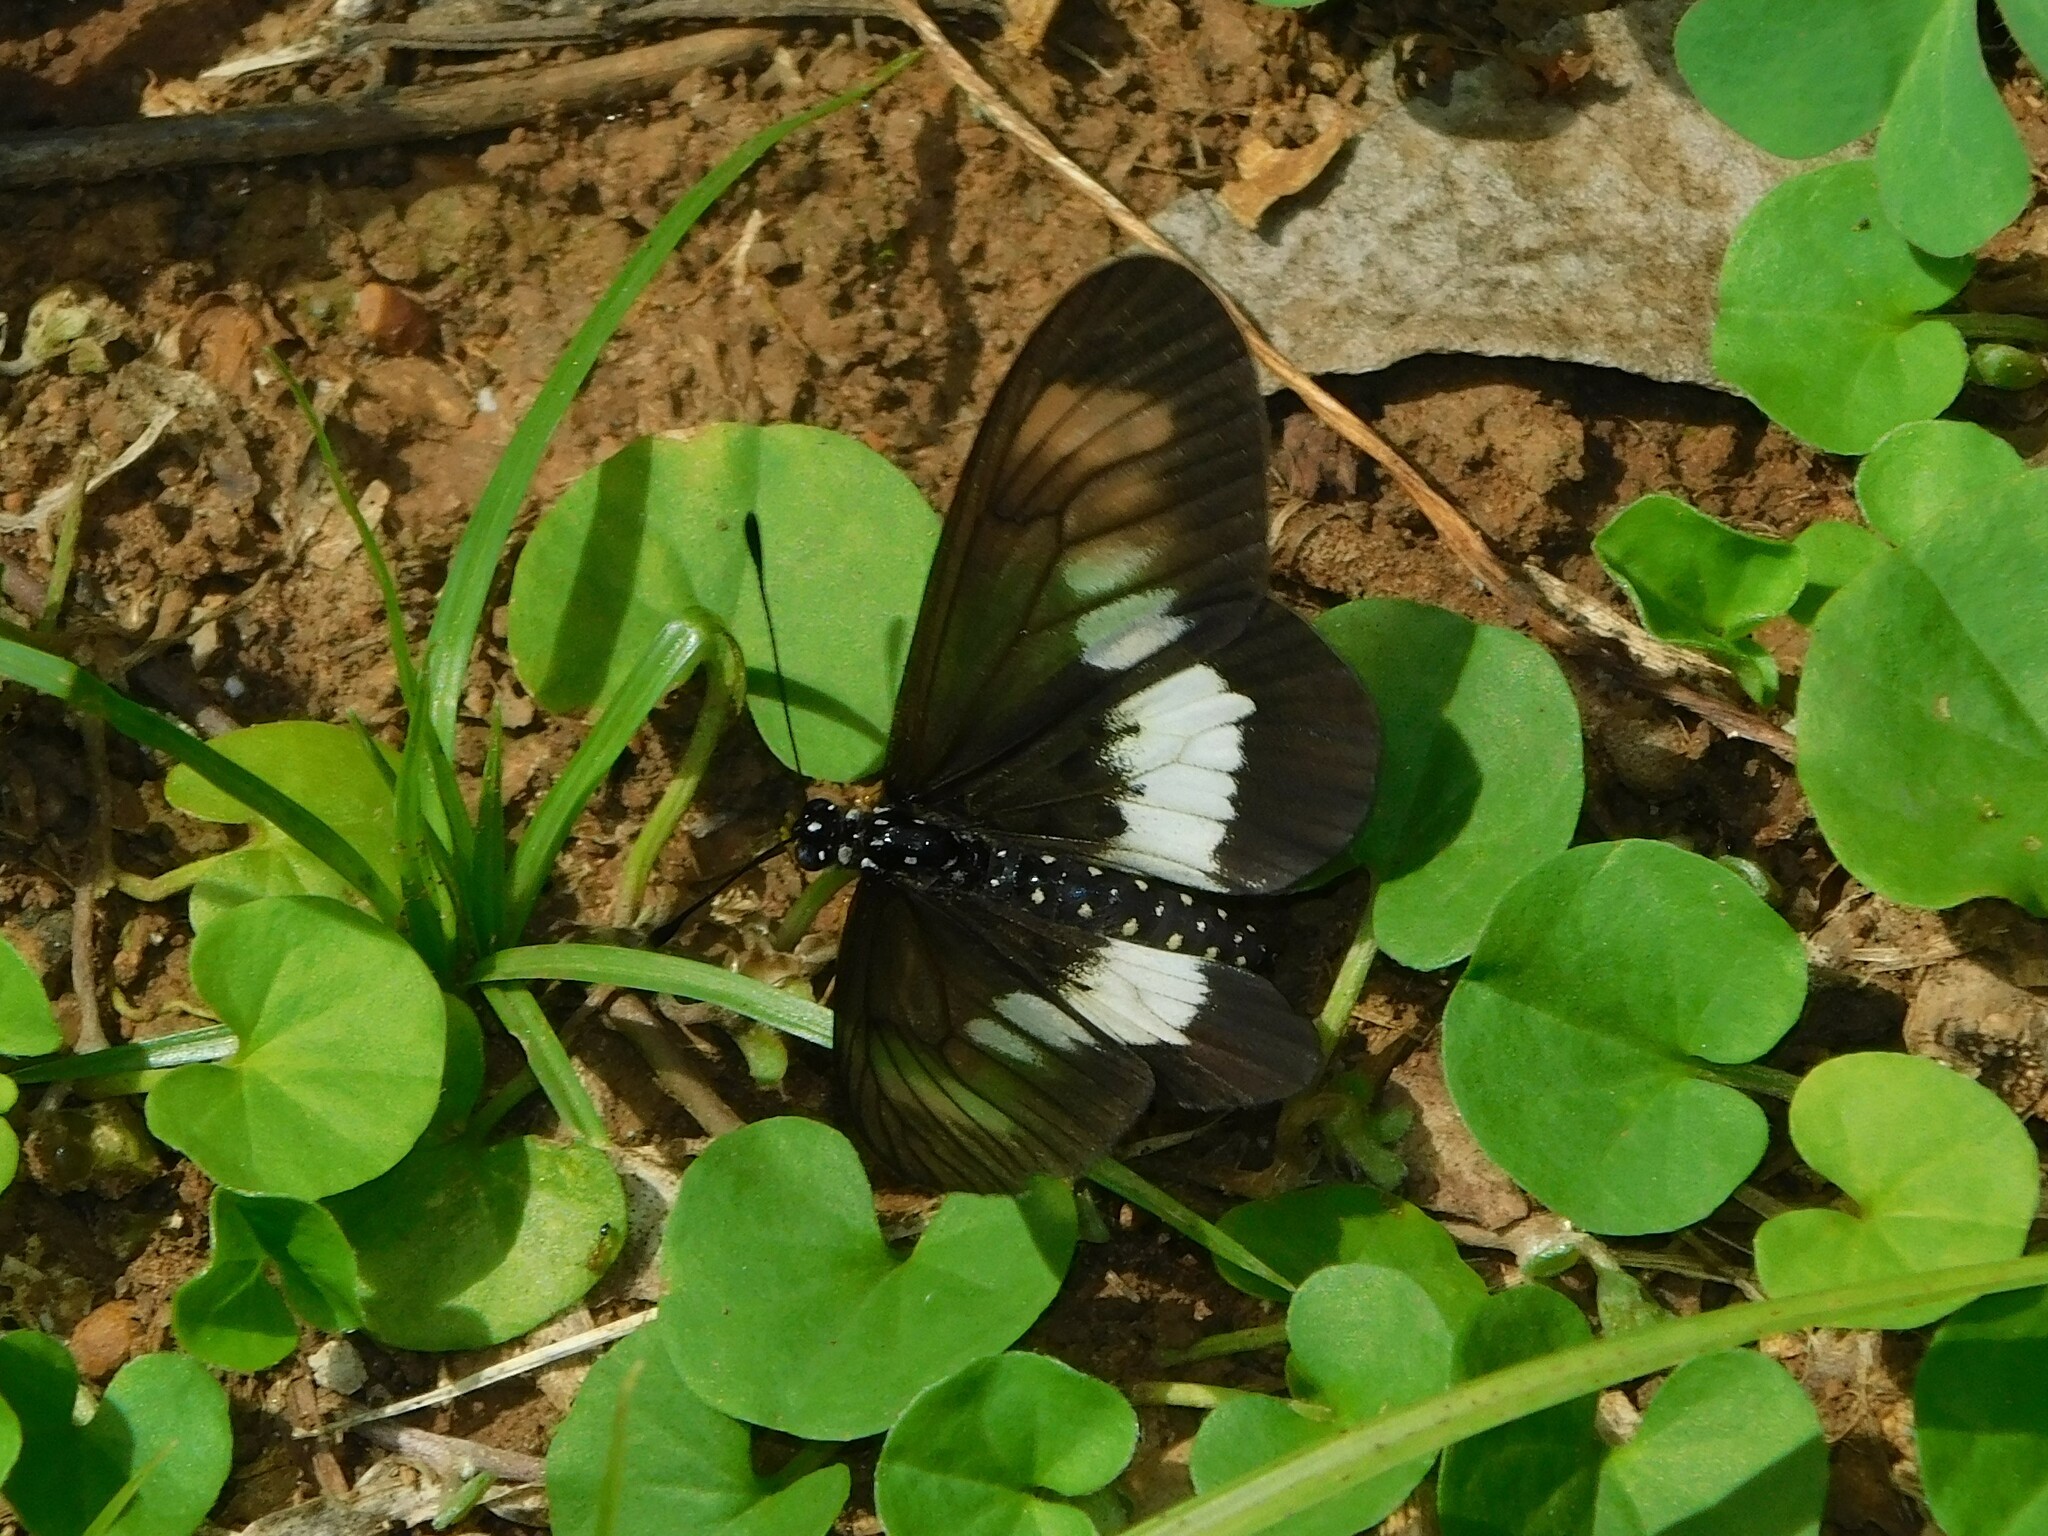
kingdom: Animalia
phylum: Arthropoda
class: Insecta
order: Lepidoptera
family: Nymphalidae
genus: Acraea
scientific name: Acraea
